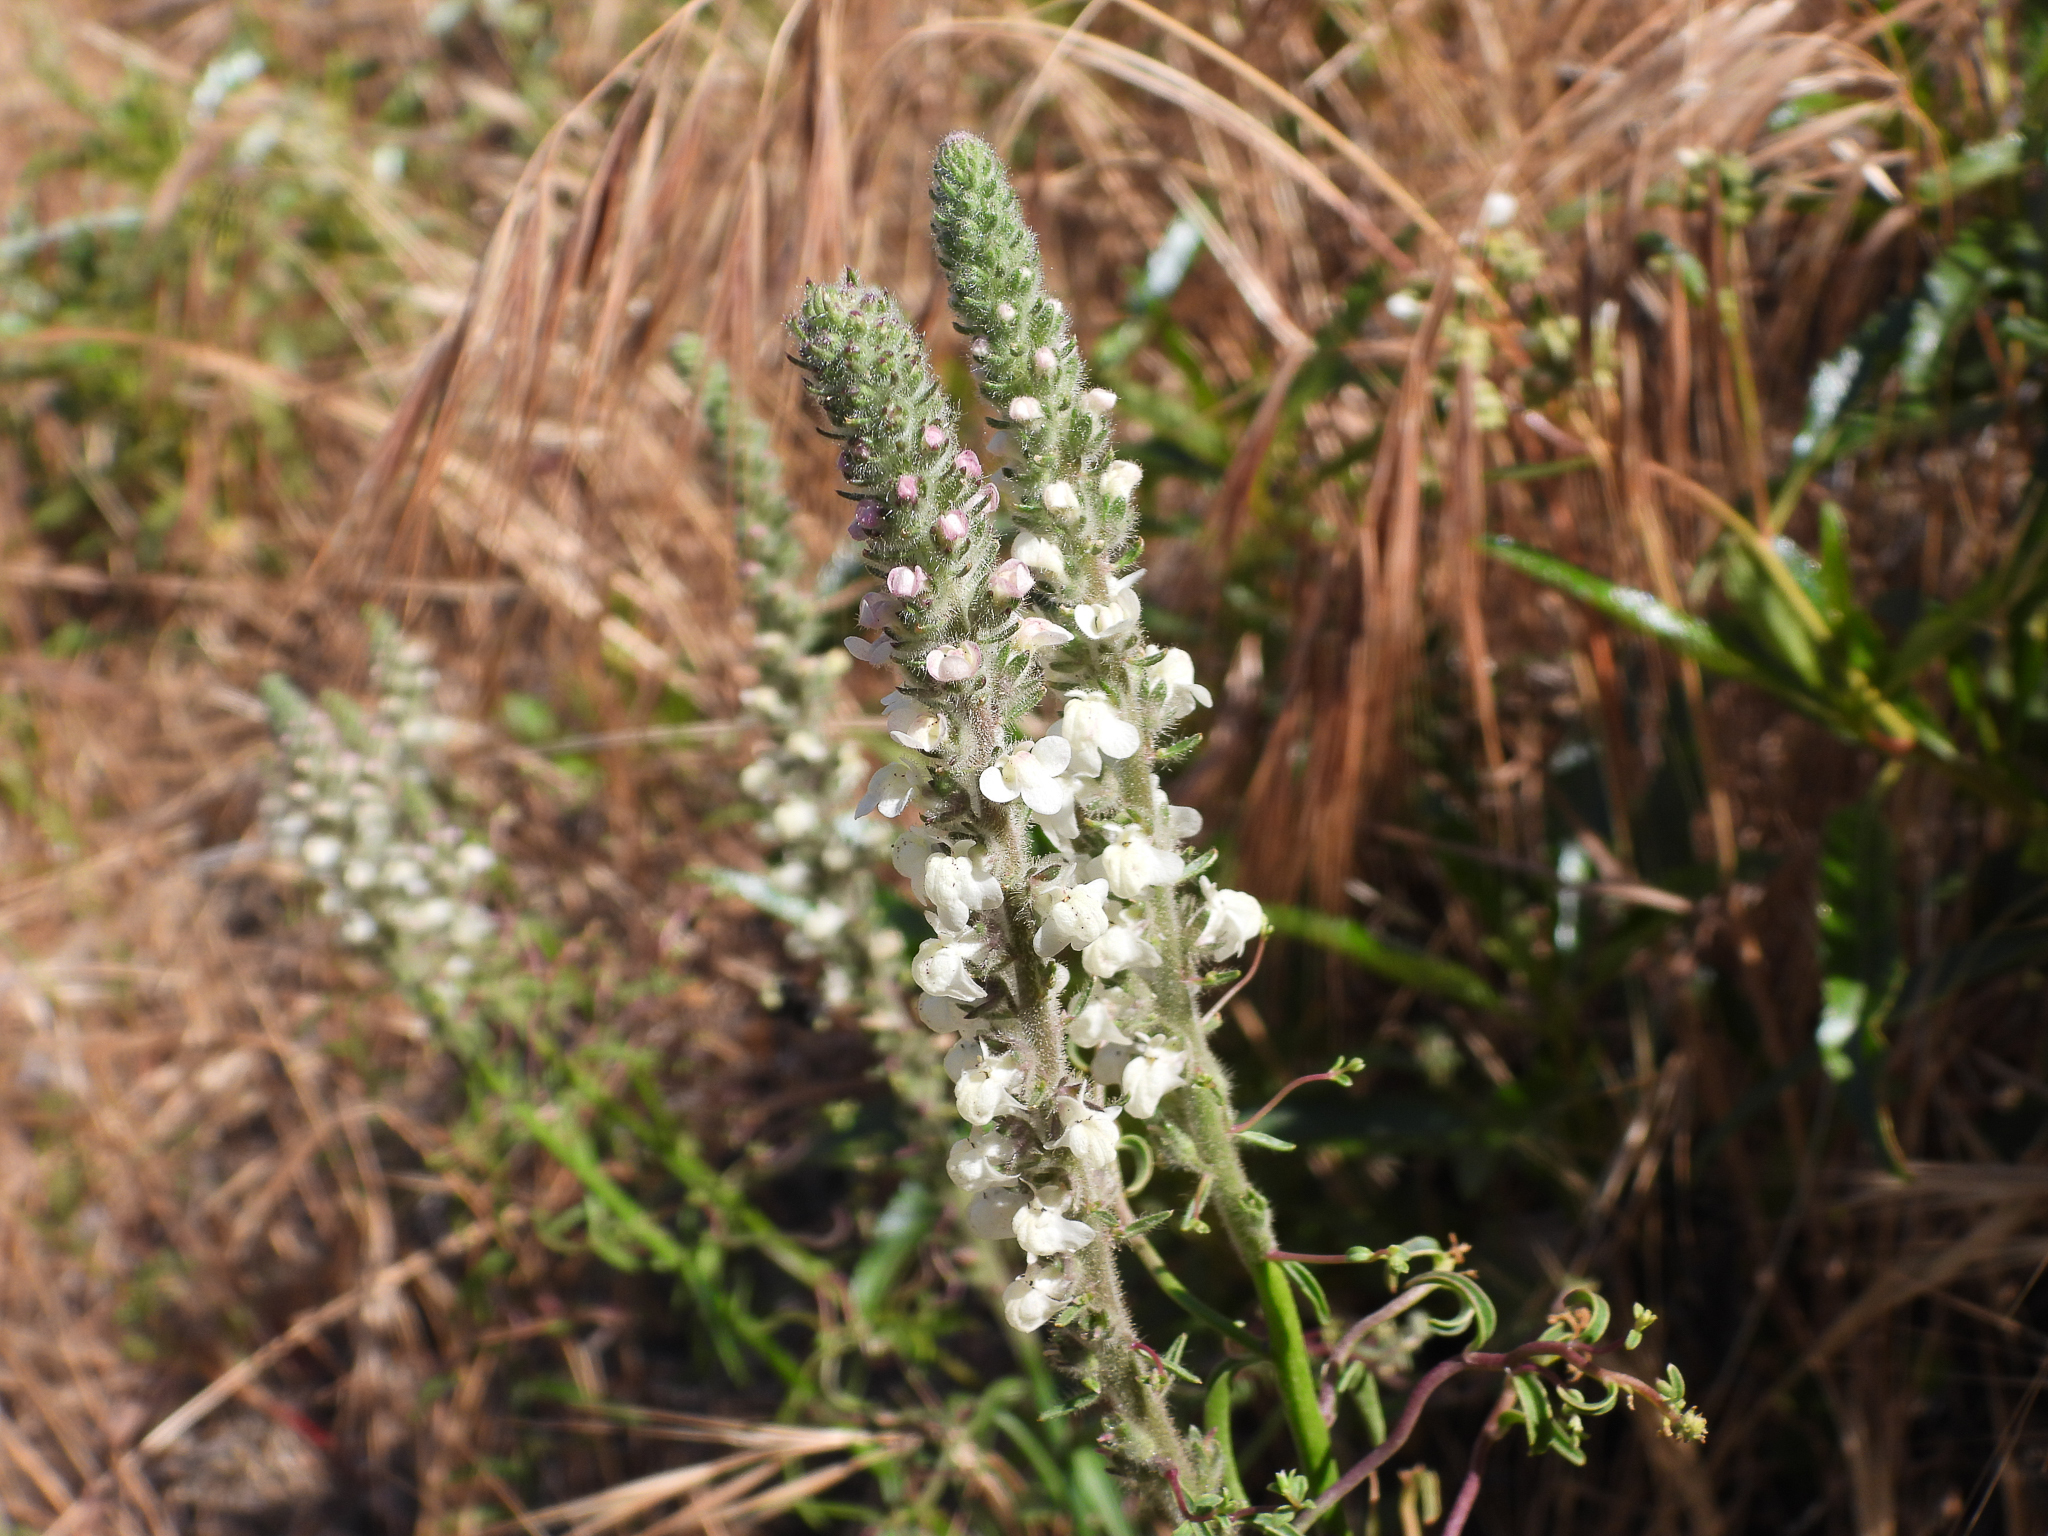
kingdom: Plantae
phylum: Tracheophyta
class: Magnoliopsida
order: Lamiales
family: Plantaginaceae
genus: Sairocarpus
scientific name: Sairocarpus coulterianus
